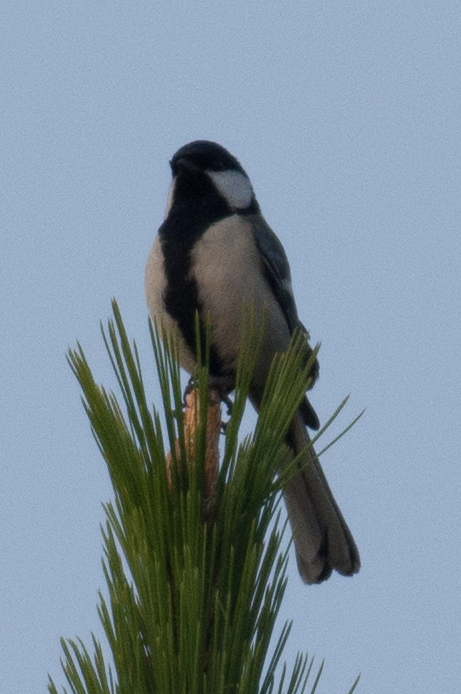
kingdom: Animalia
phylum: Chordata
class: Aves
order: Passeriformes
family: Paridae
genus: Parus
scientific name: Parus minor
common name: Japanese tit
